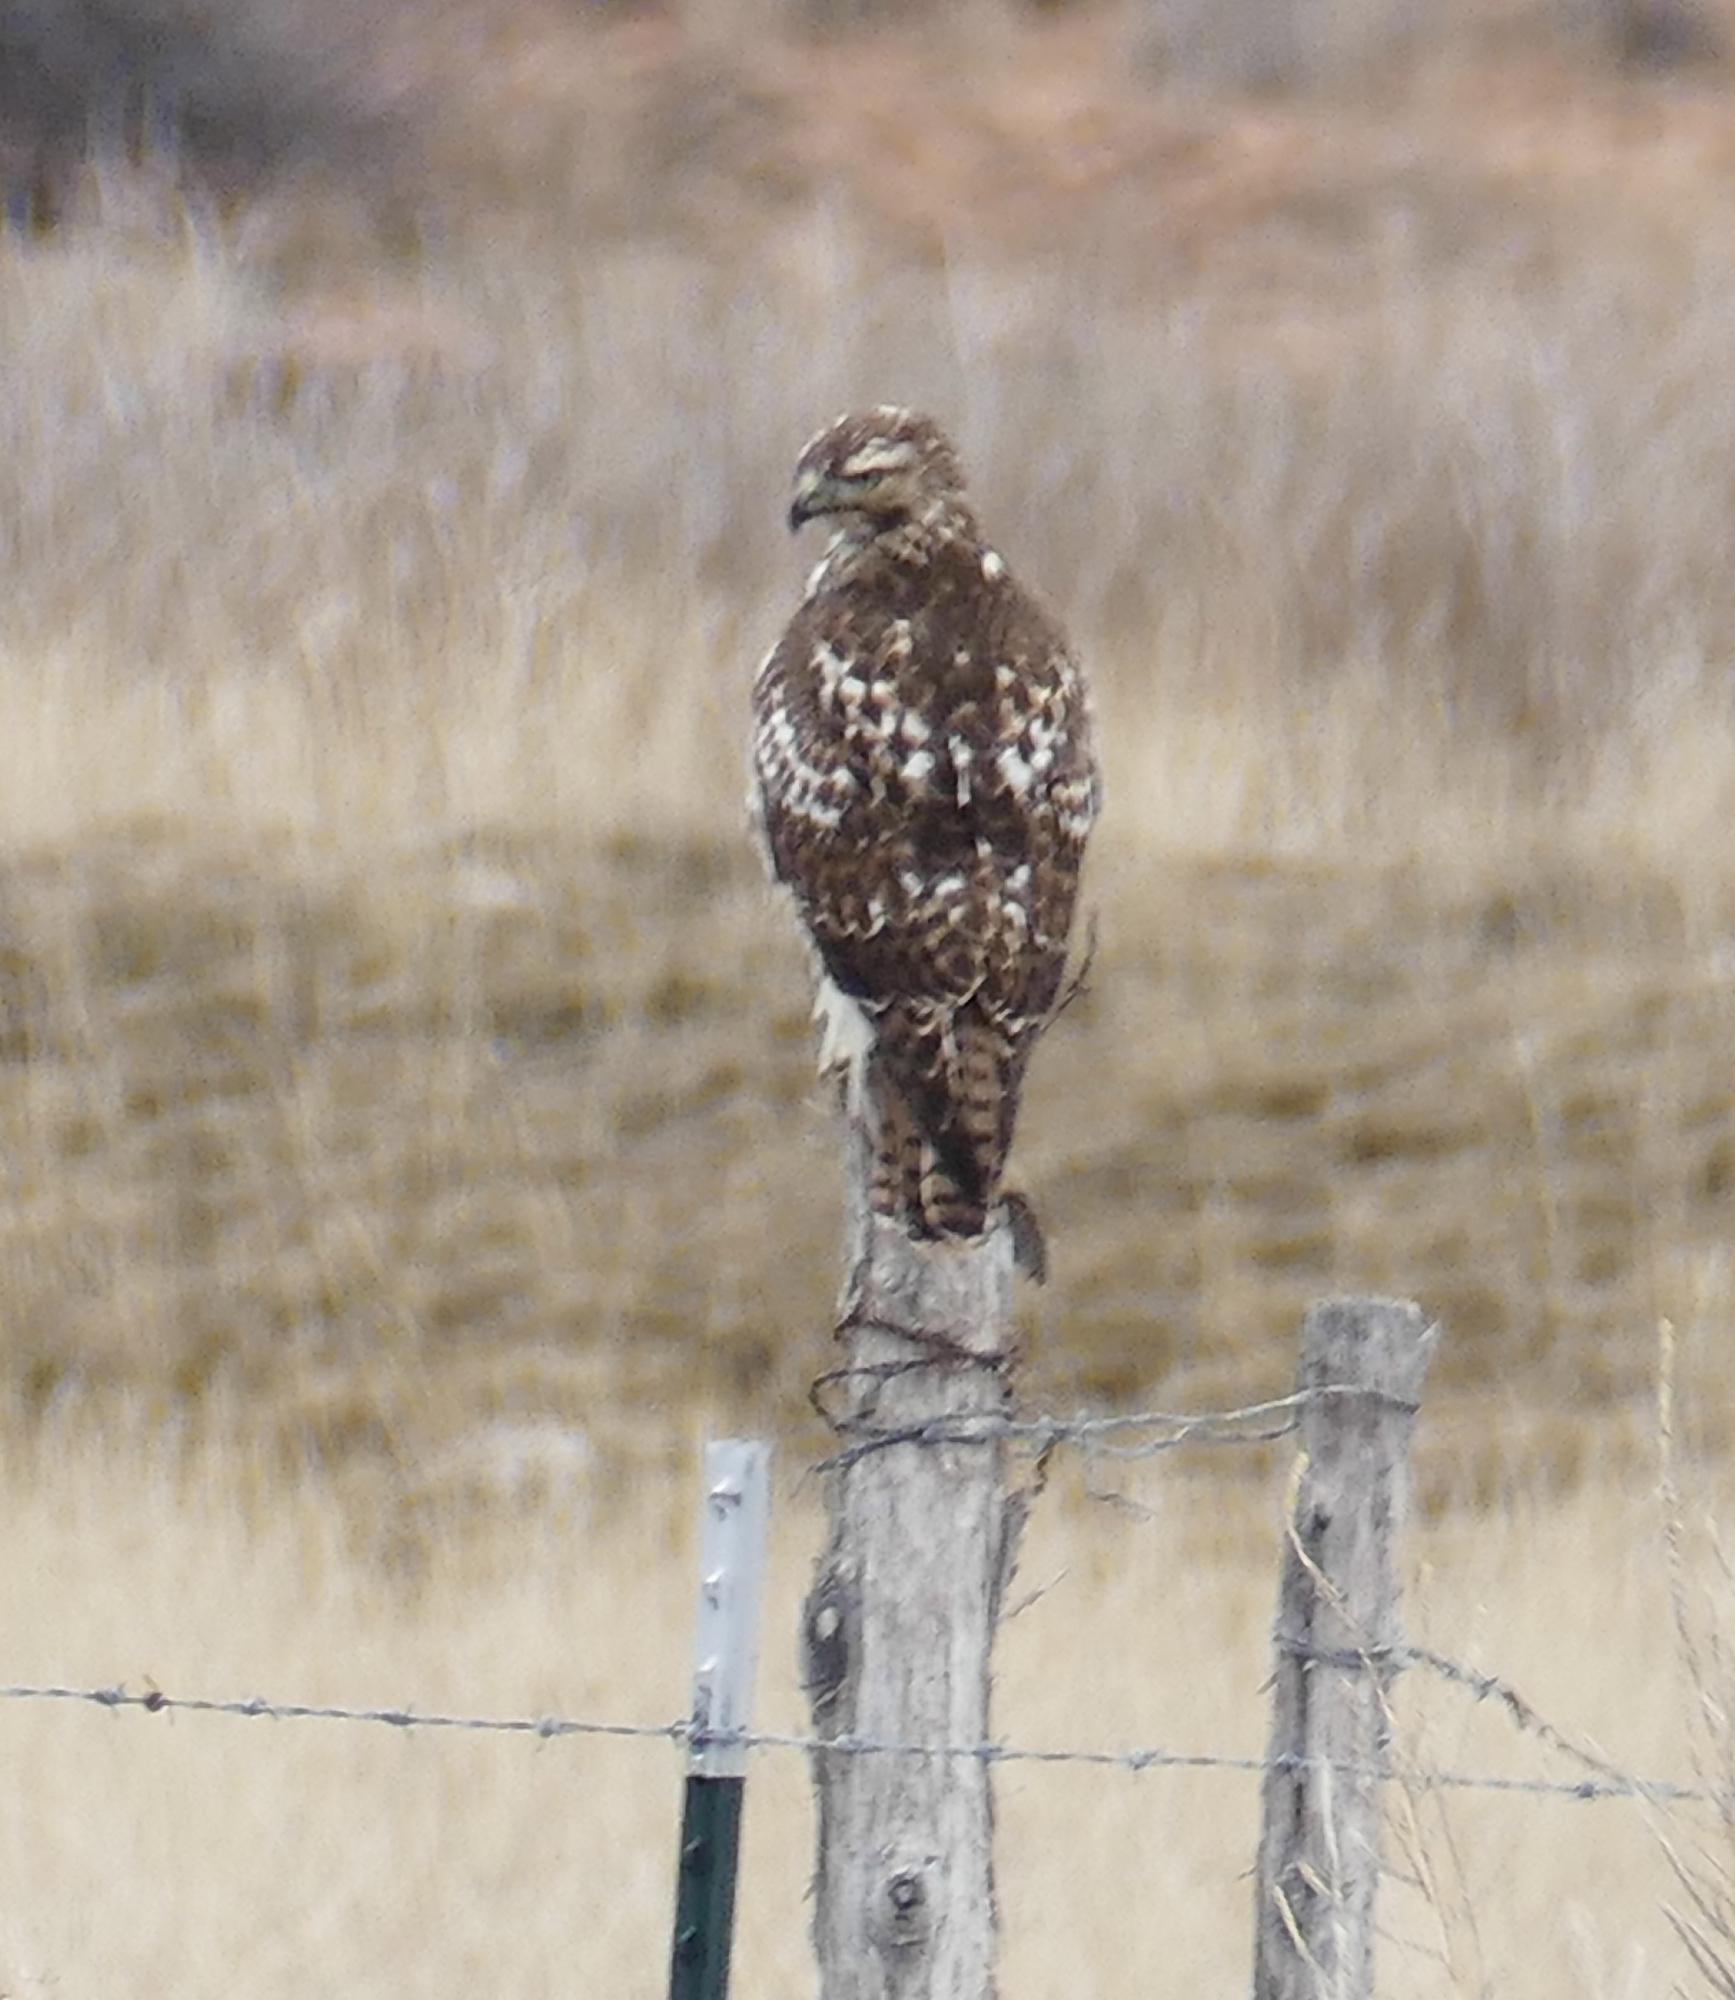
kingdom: Animalia
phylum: Chordata
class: Aves
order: Accipitriformes
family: Accipitridae
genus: Buteo
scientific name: Buteo jamaicensis
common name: Red-tailed hawk
